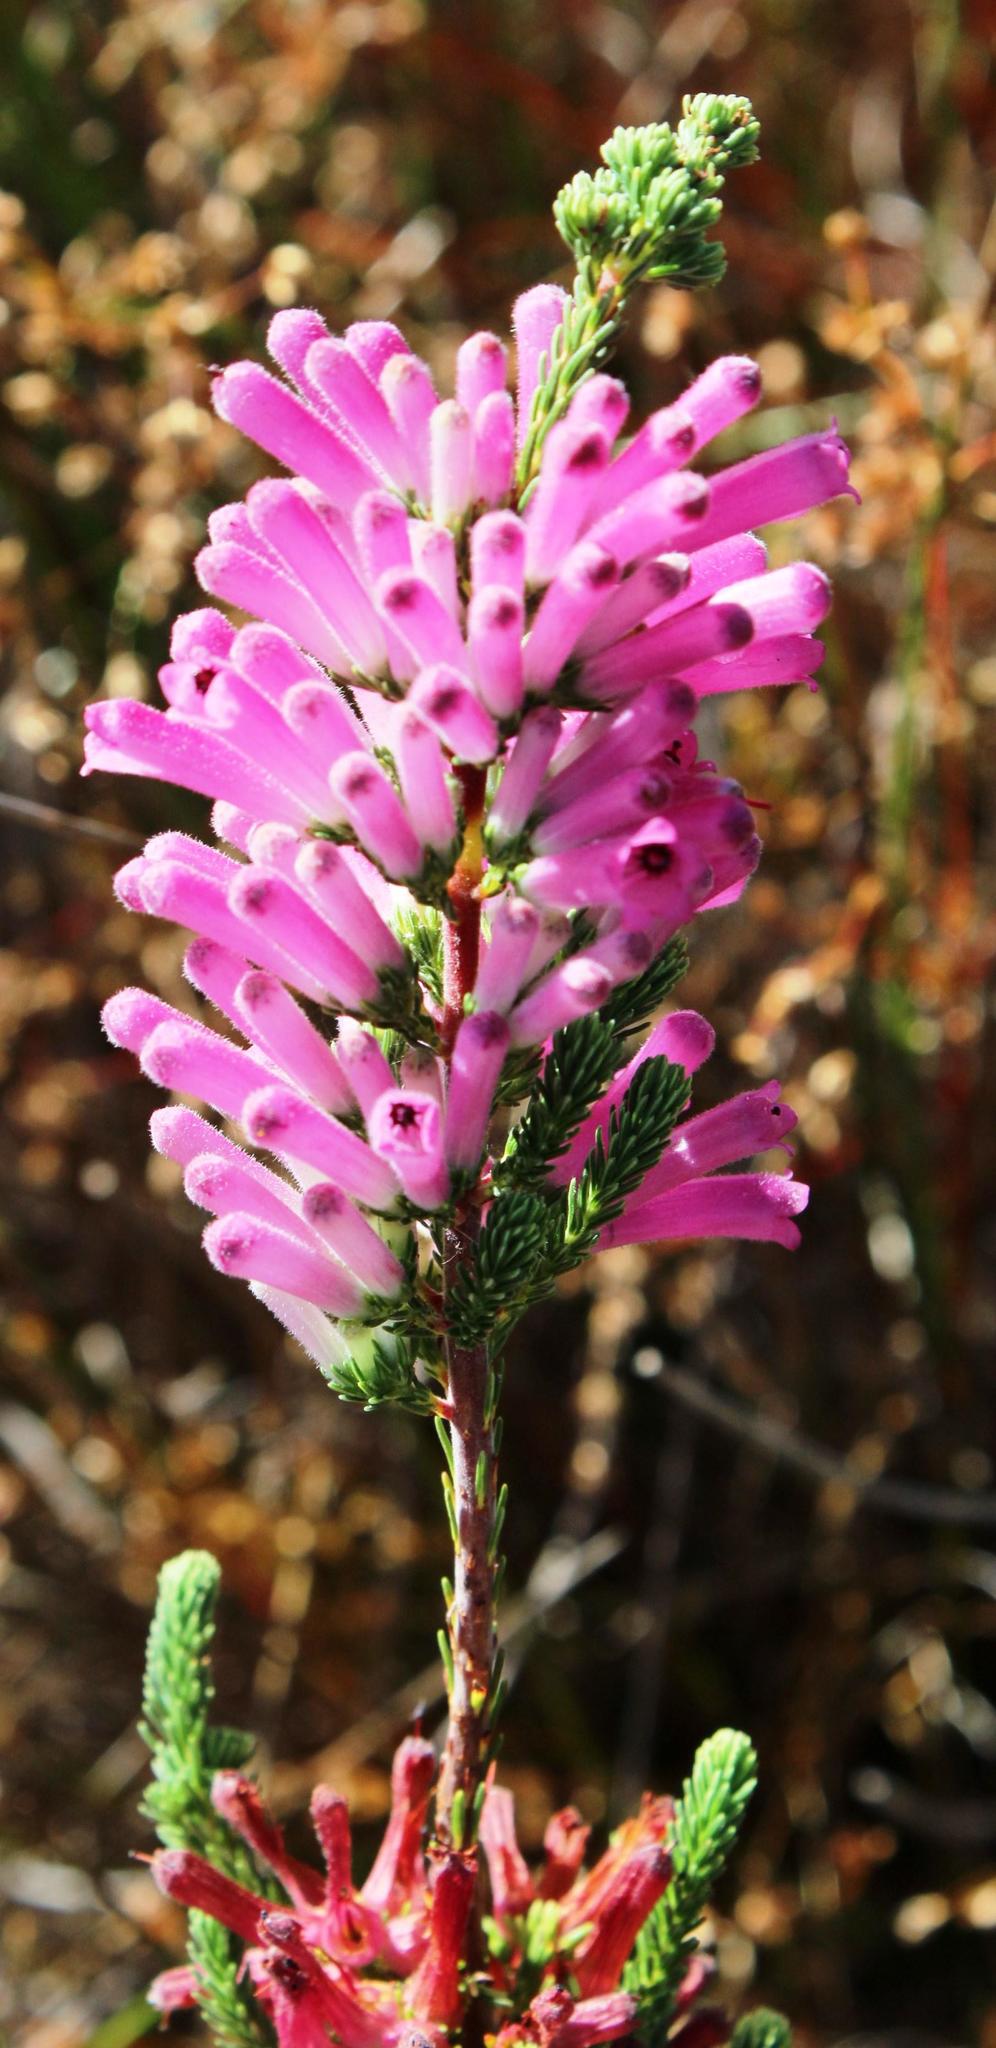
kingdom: Plantae
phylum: Tracheophyta
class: Magnoliopsida
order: Ericales
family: Ericaceae
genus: Erica
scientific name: Erica verticillata
